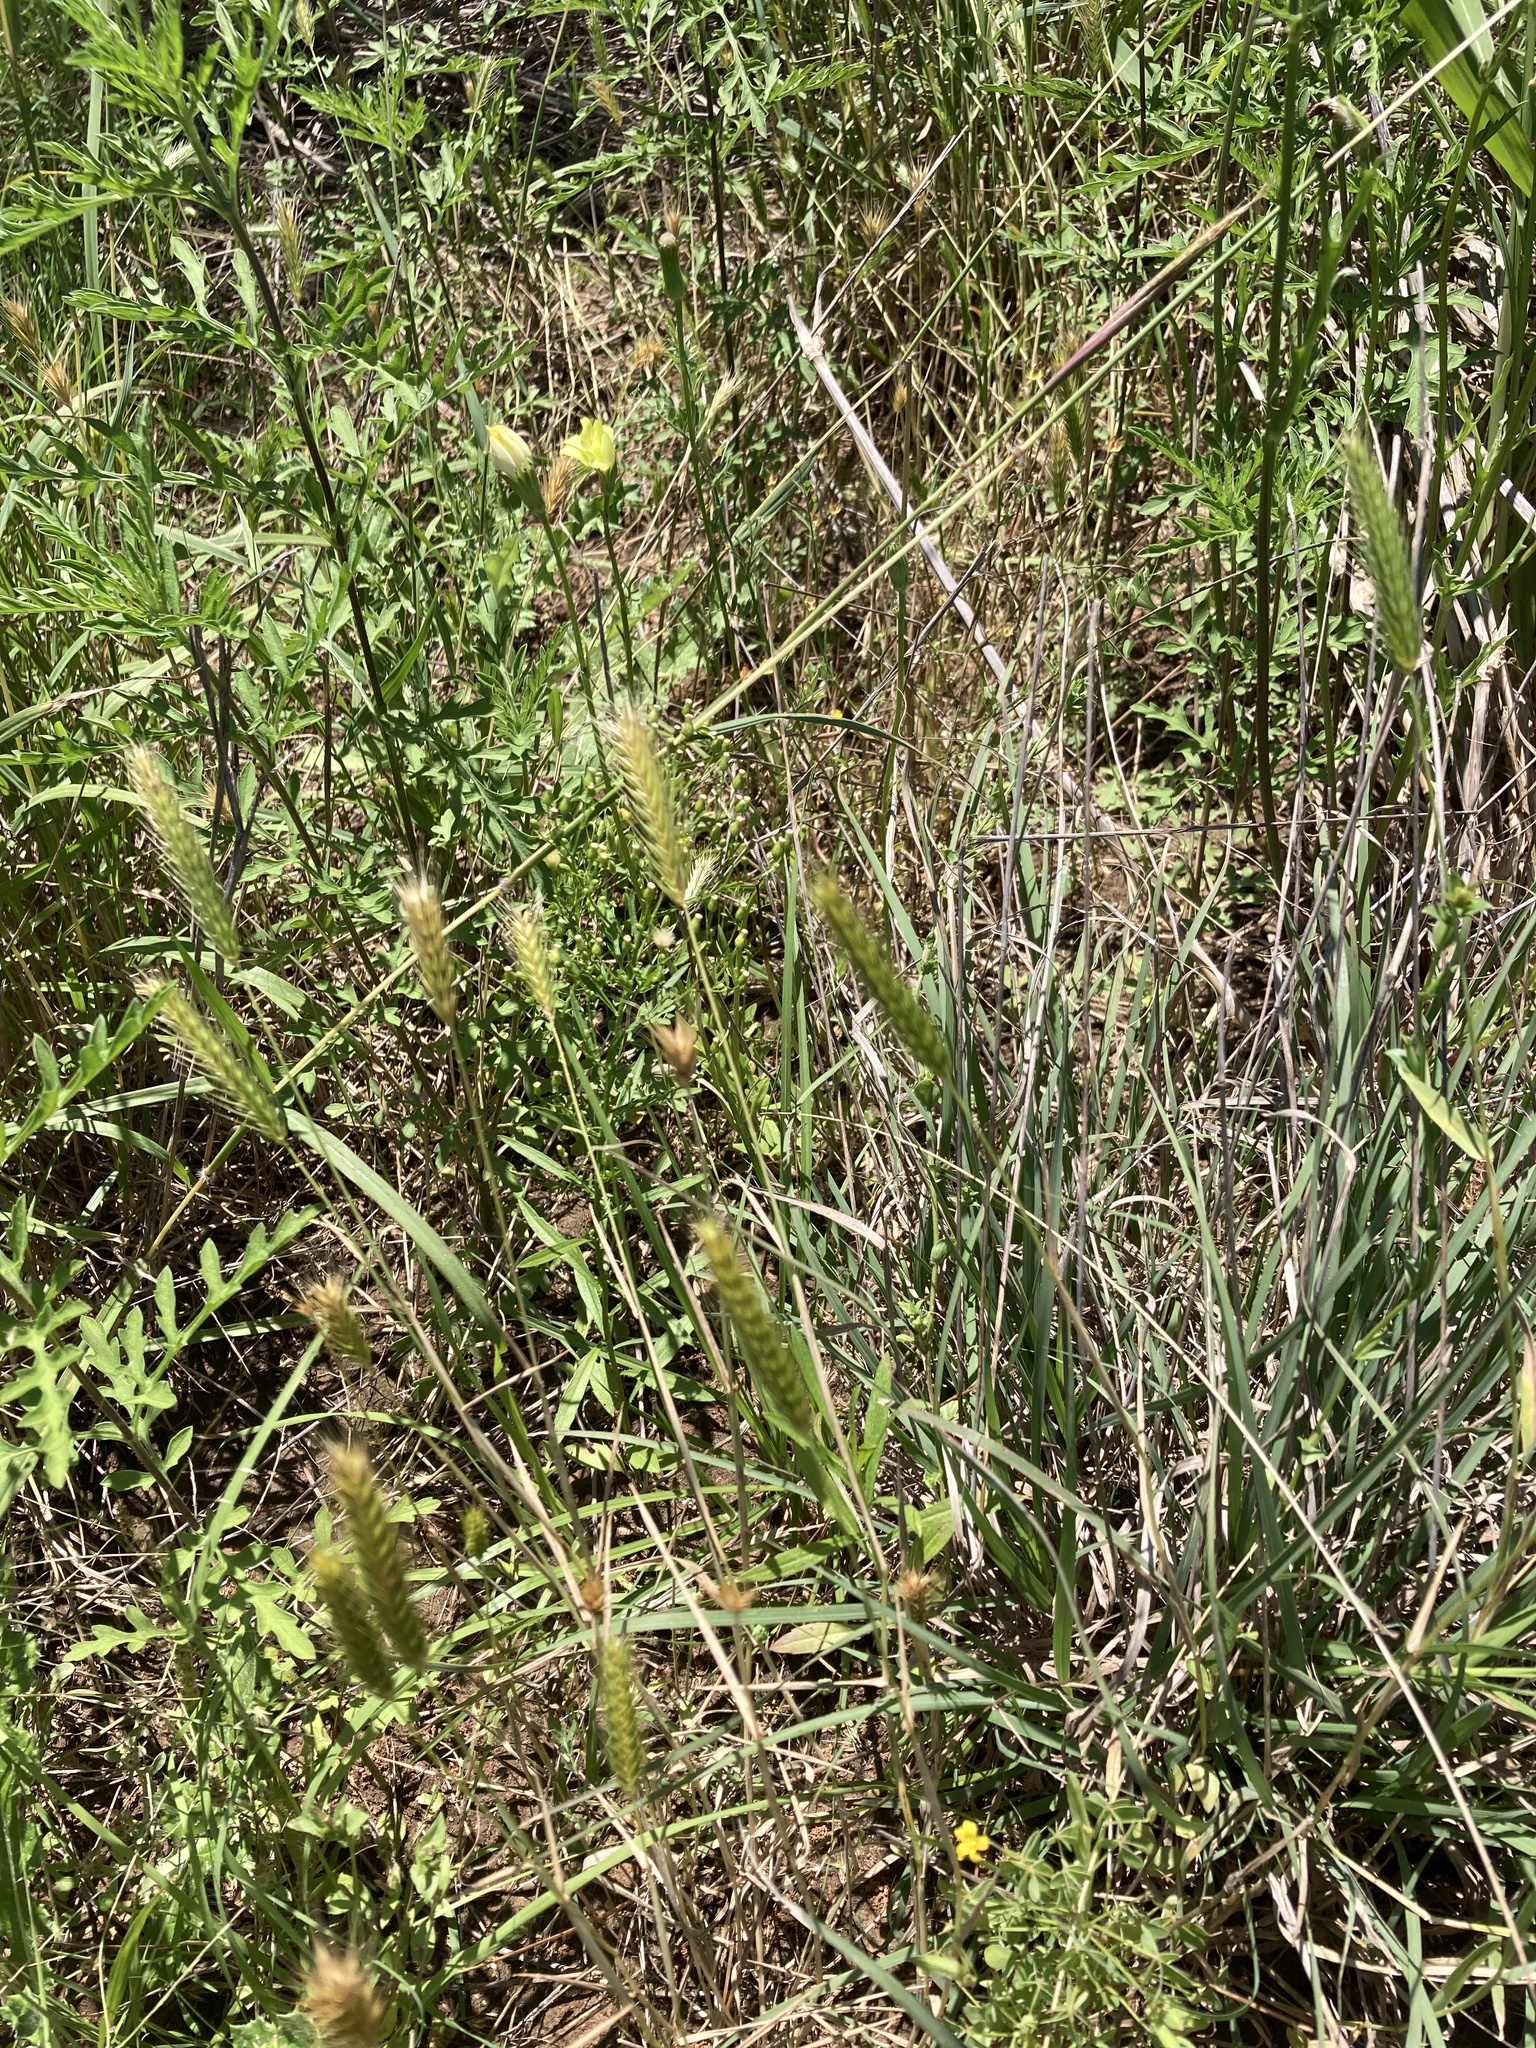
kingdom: Plantae
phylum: Tracheophyta
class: Liliopsida
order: Poales
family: Poaceae
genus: Hordeum
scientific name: Hordeum pusillum
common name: Little barley
